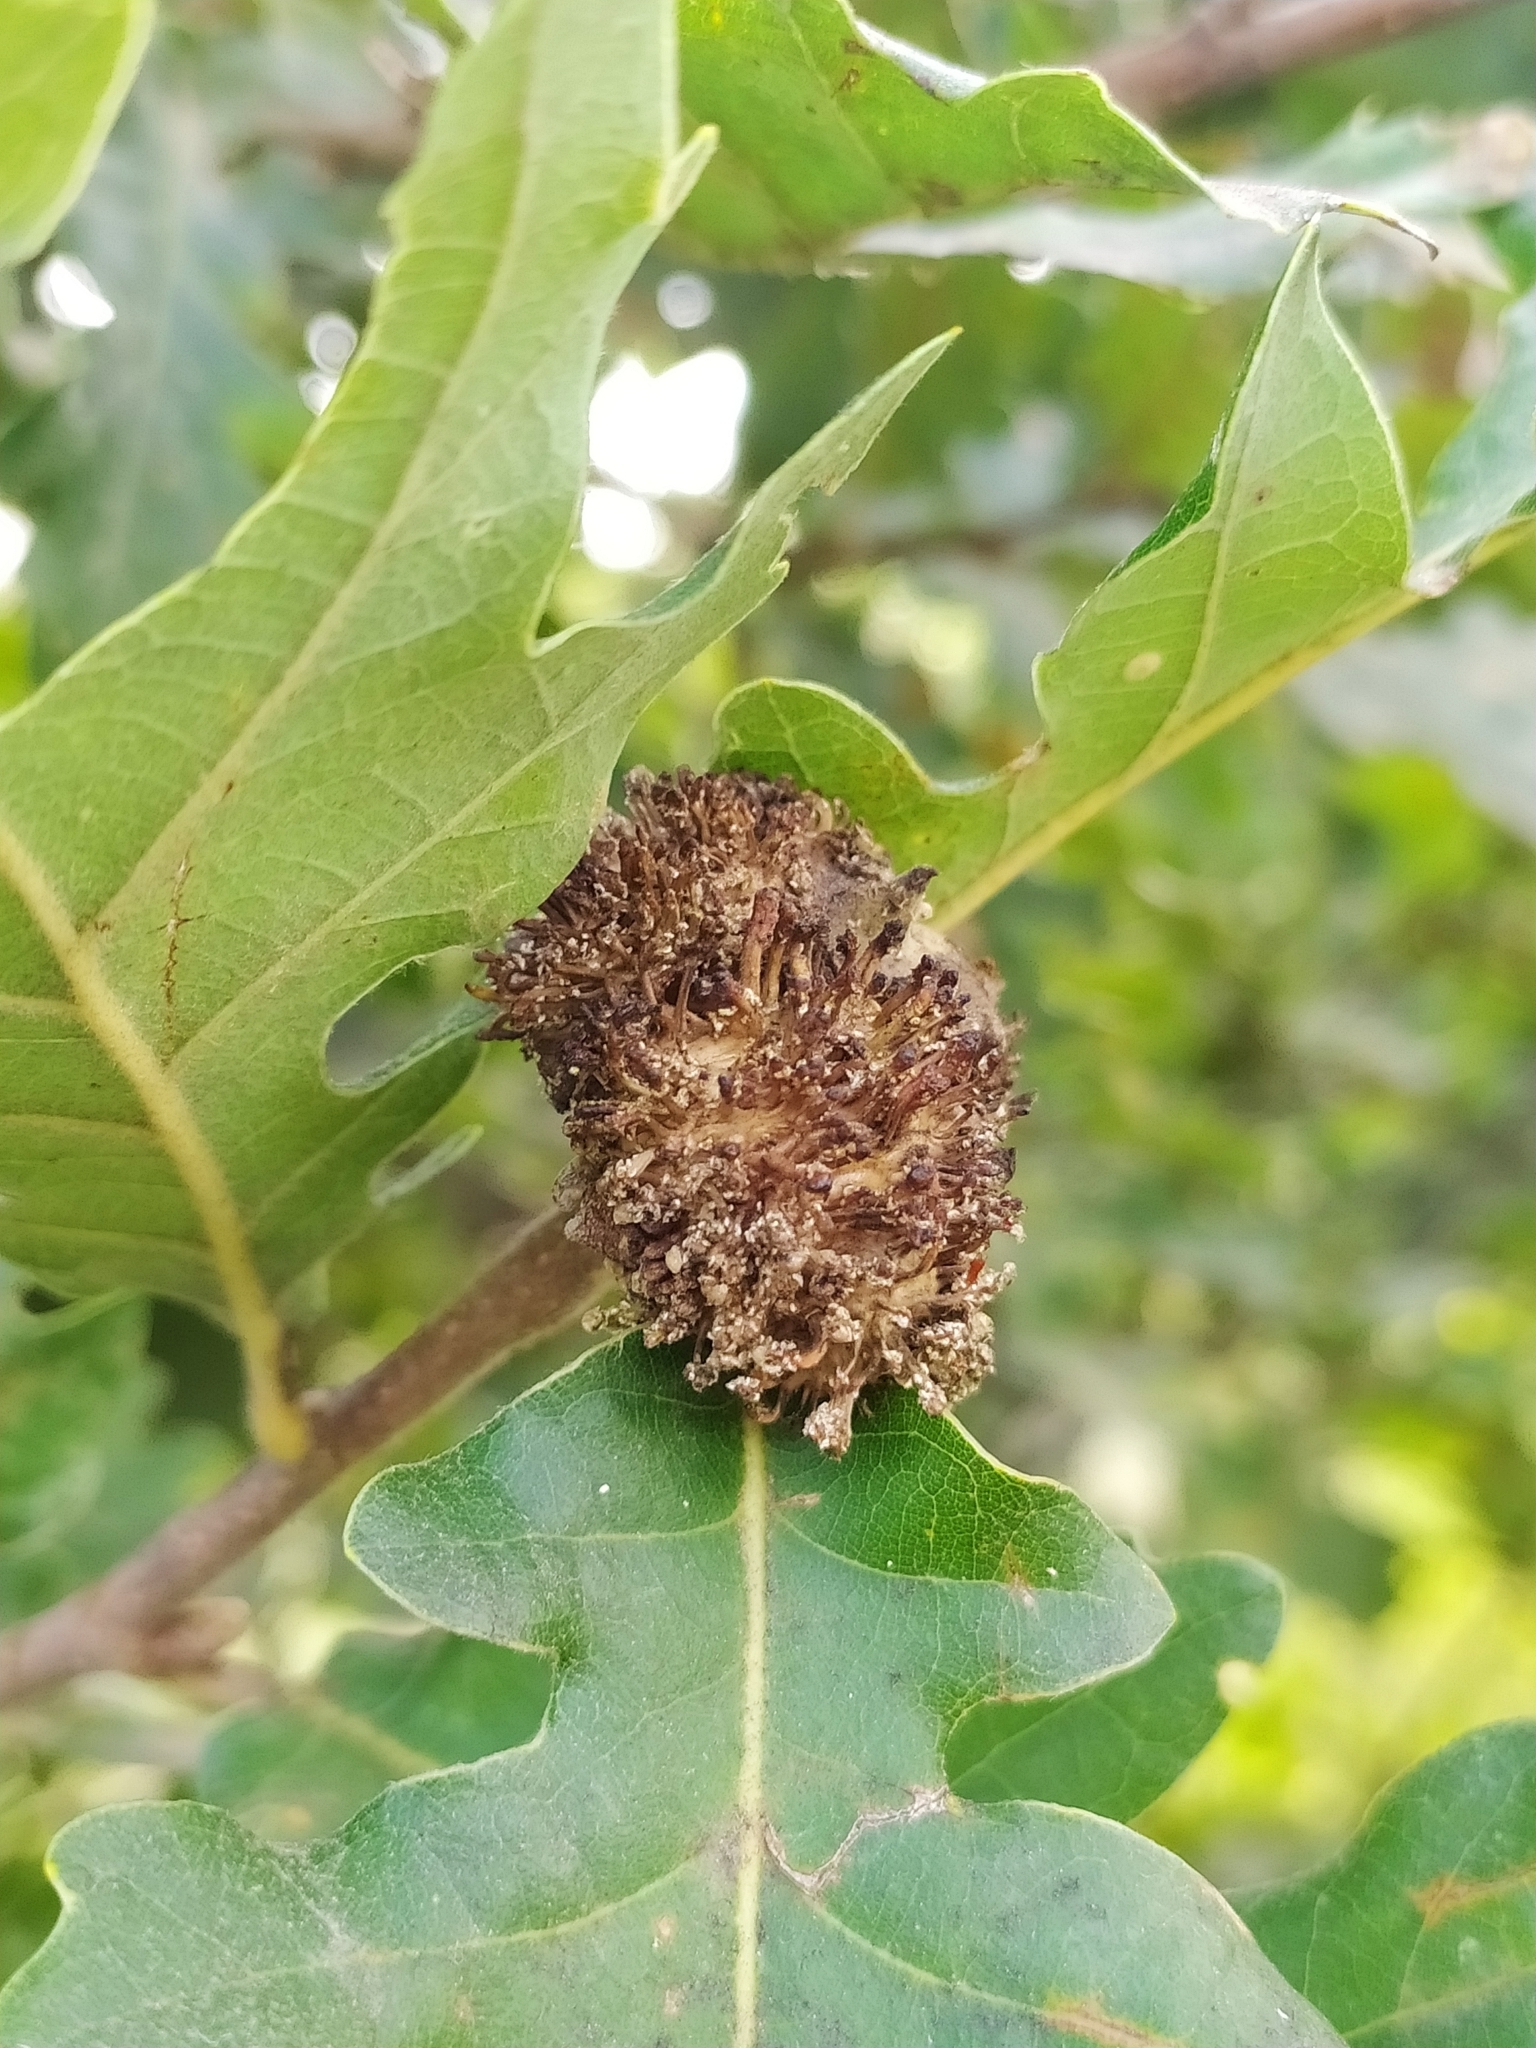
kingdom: Animalia
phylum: Arthropoda
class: Insecta
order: Hymenoptera
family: Cynipidae
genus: Andricus
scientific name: Andricus lucidus
